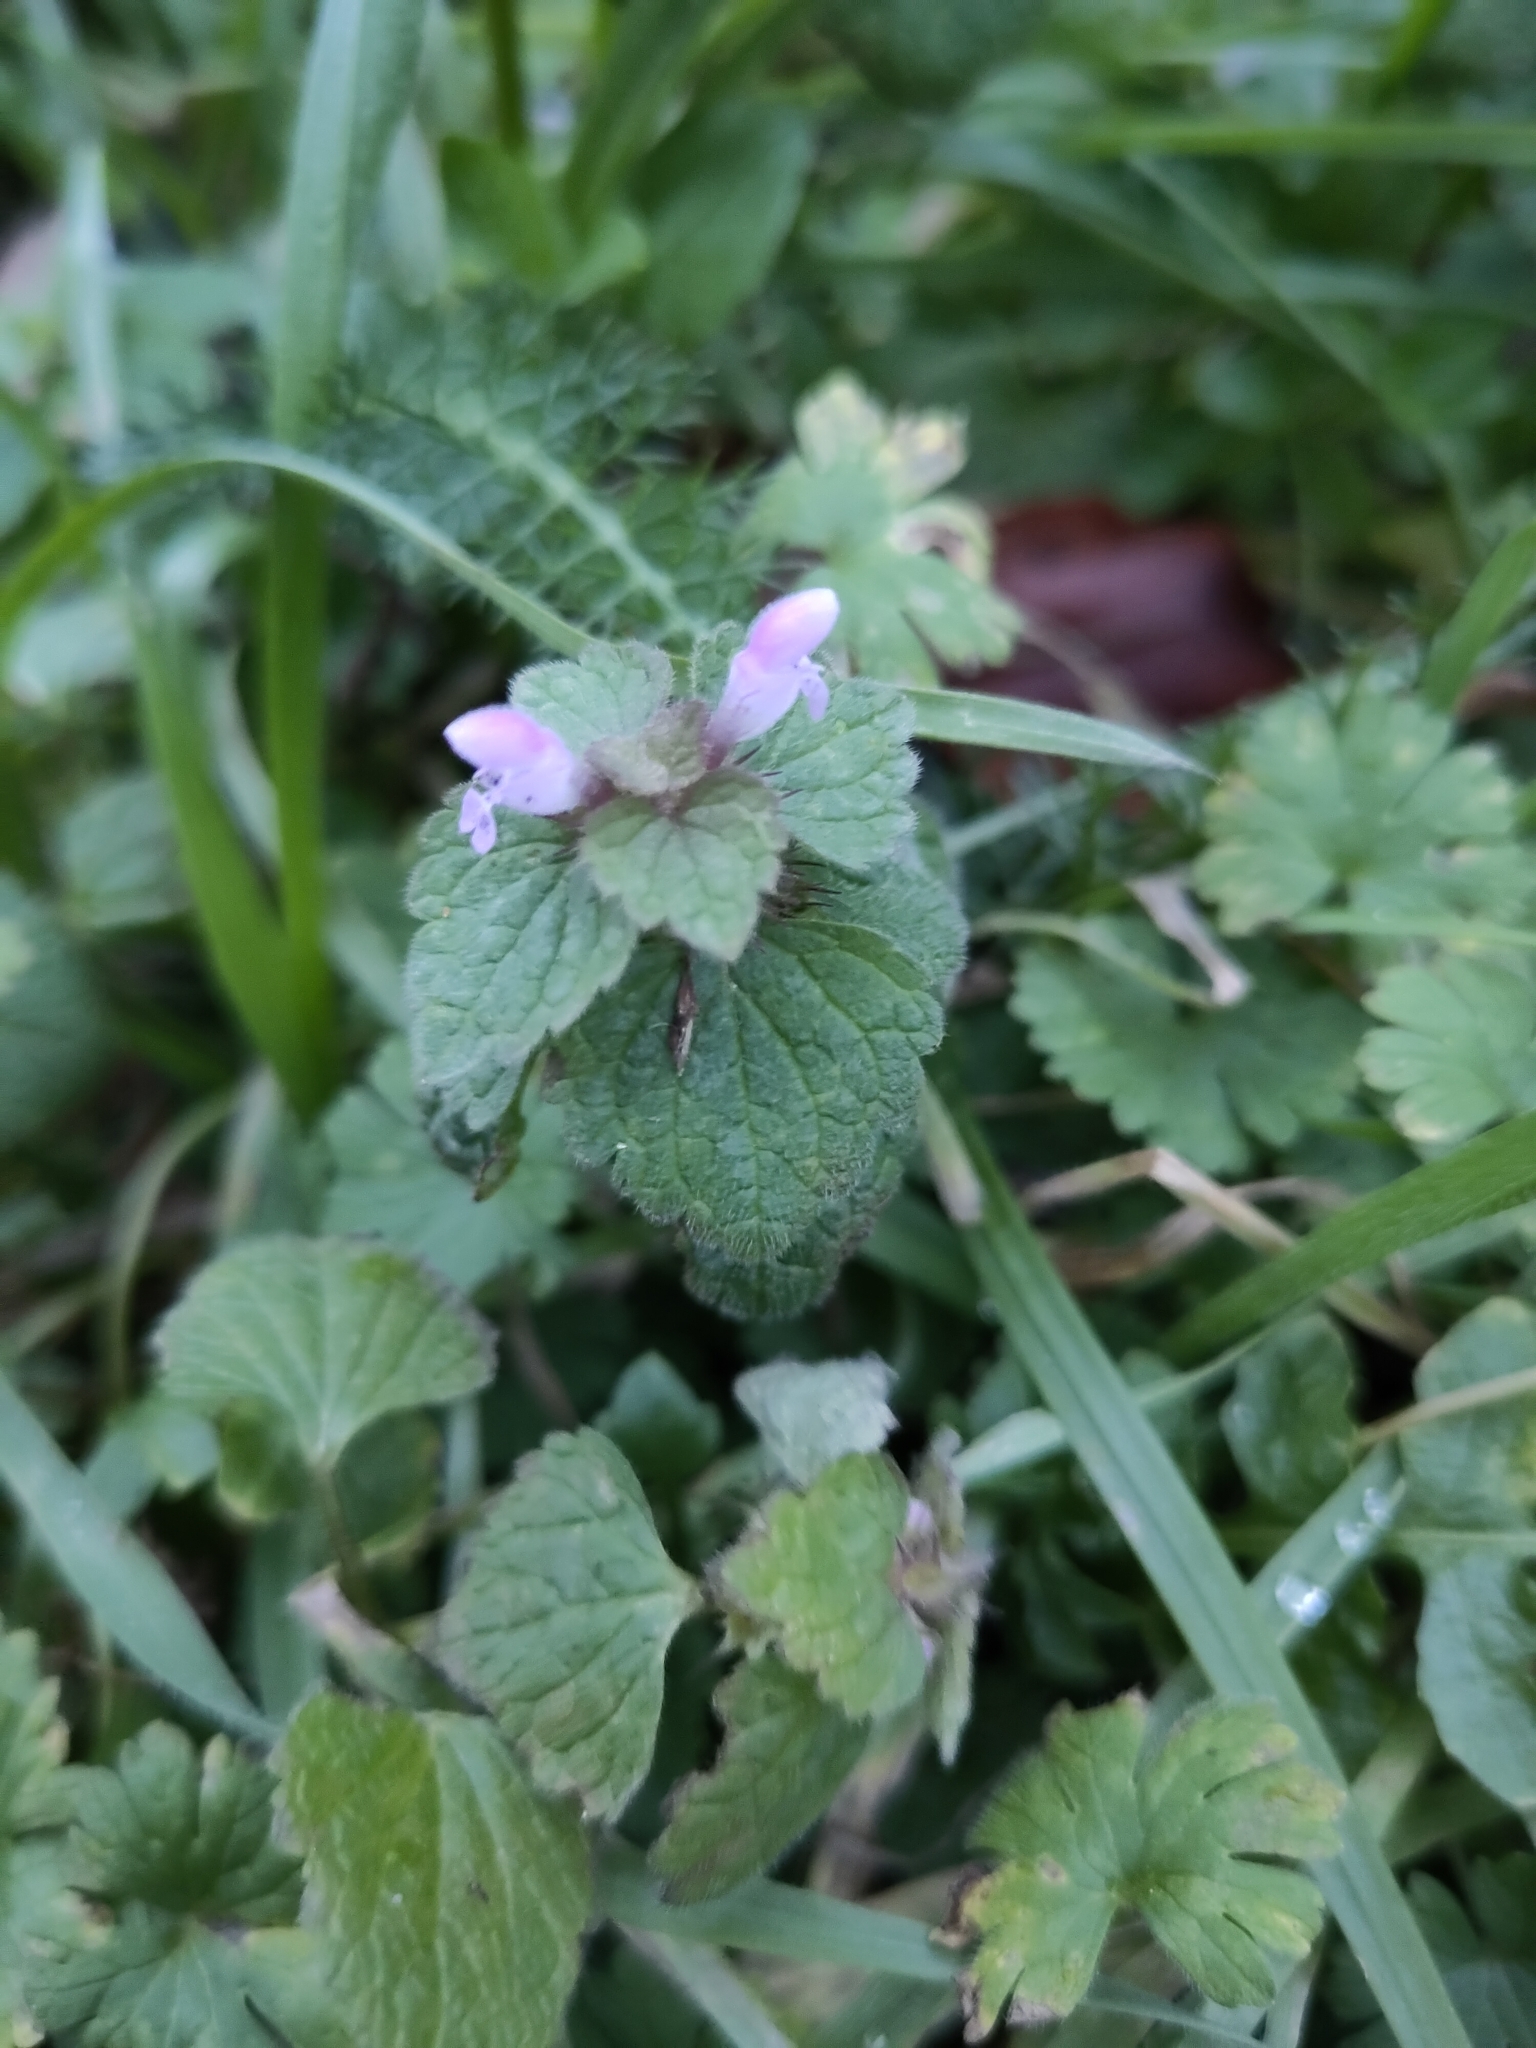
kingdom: Plantae
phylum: Tracheophyta
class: Magnoliopsida
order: Lamiales
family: Lamiaceae
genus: Lamium
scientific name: Lamium purpureum
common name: Red dead-nettle
